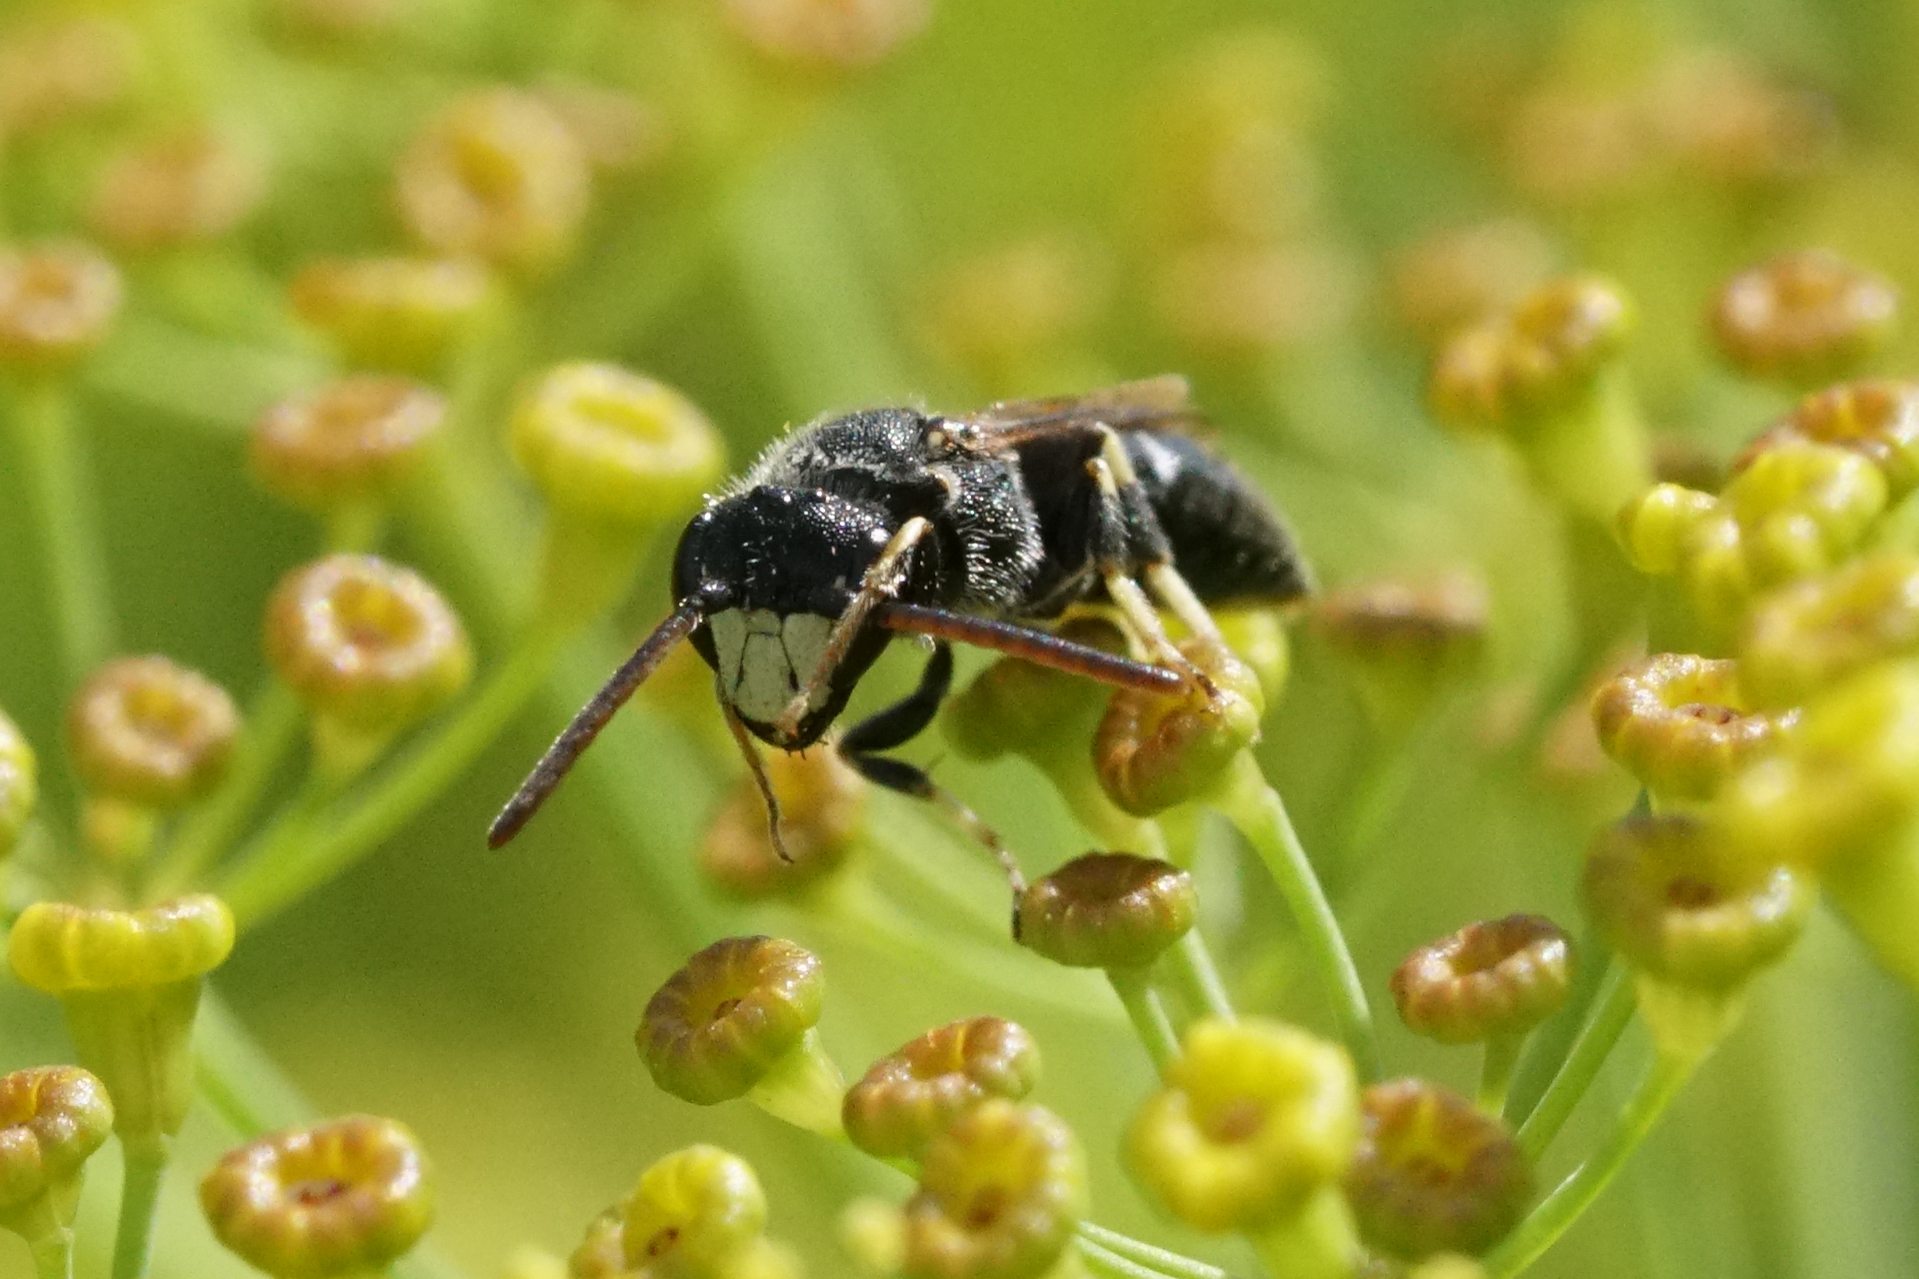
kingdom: Animalia
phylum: Arthropoda
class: Insecta
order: Hymenoptera
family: Colletidae
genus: Hylaeus
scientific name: Hylaeus hyalinatus
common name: Hyaline masked bee
